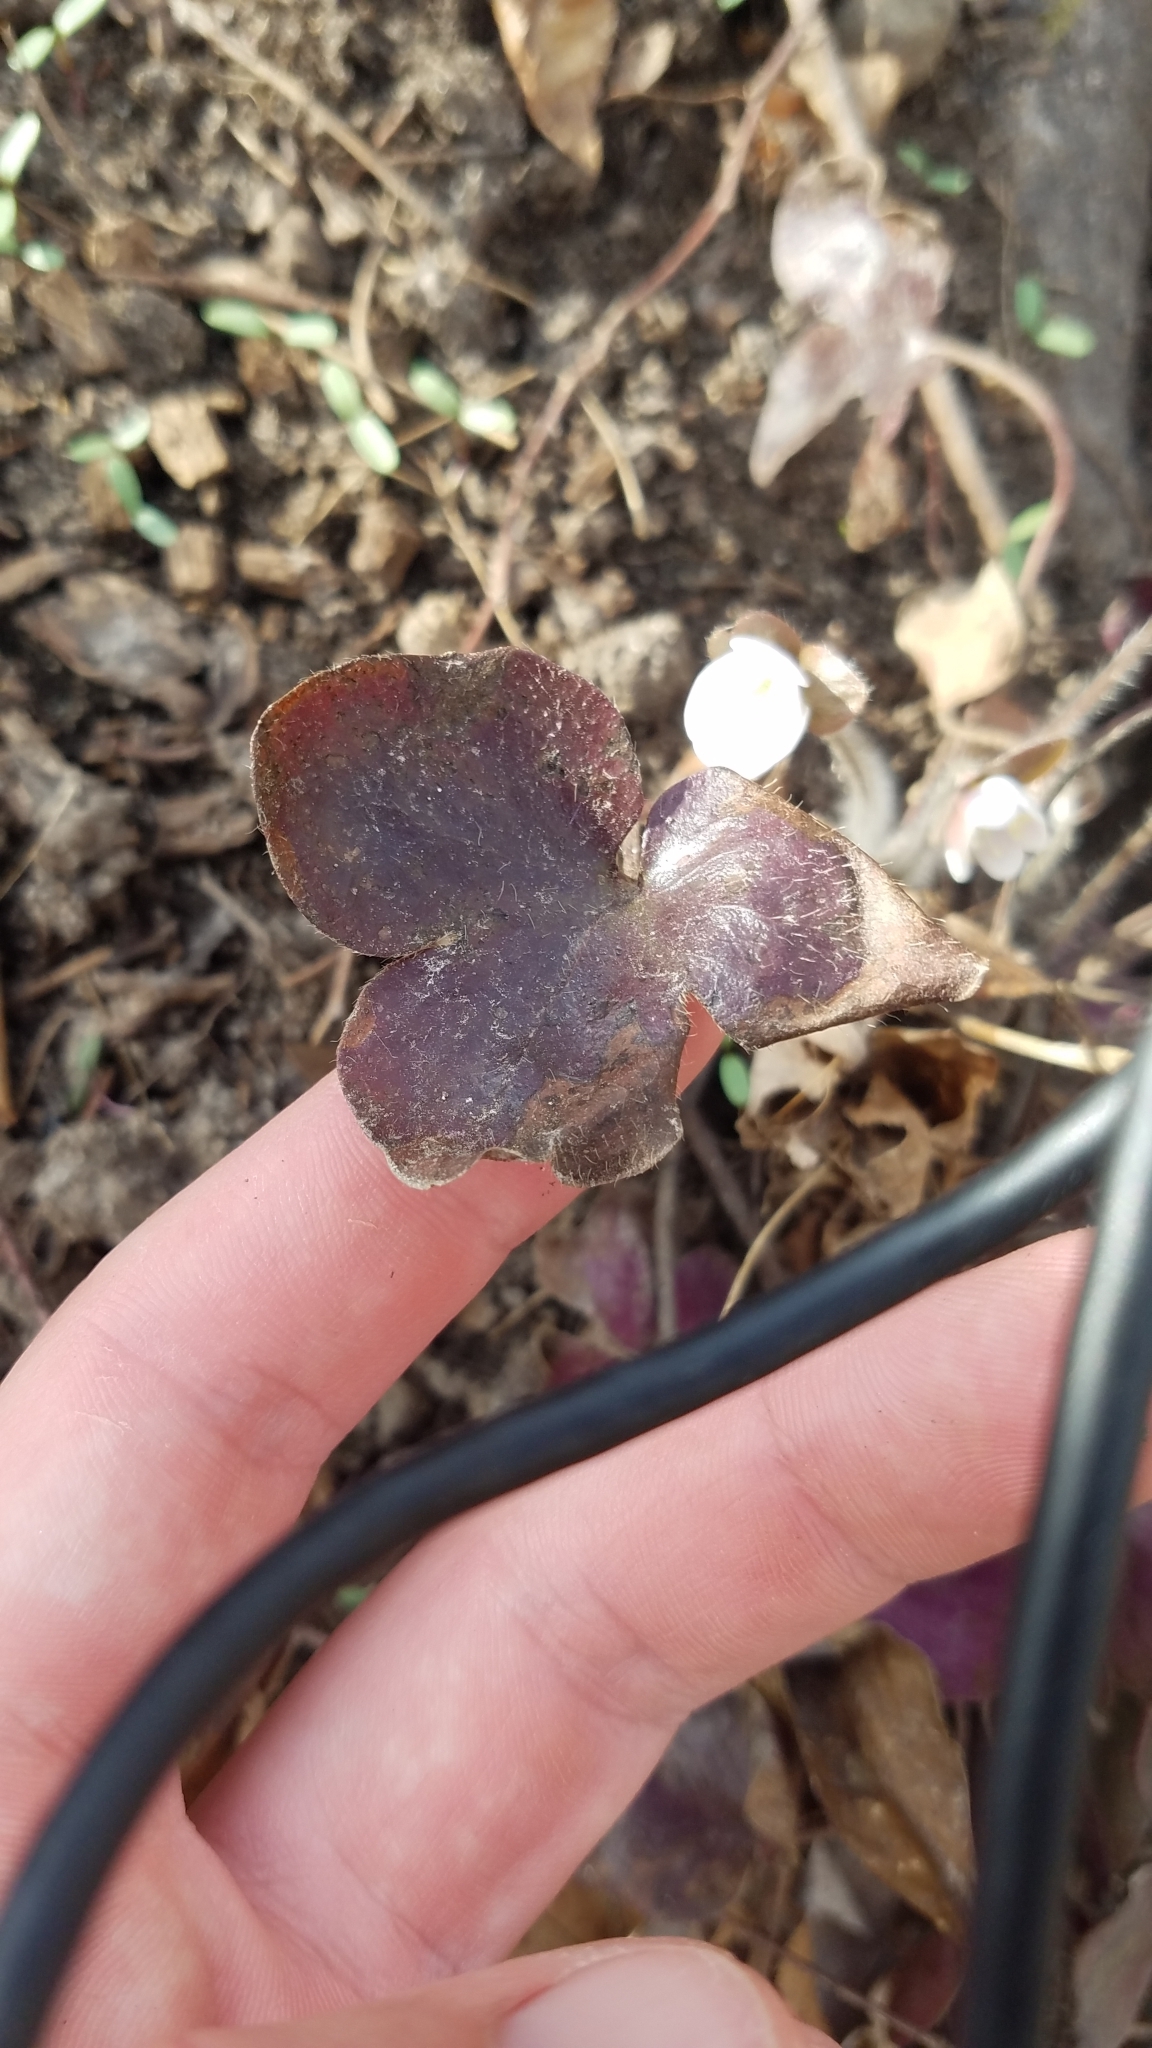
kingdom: Plantae
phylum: Tracheophyta
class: Magnoliopsida
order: Ranunculales
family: Ranunculaceae
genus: Hepatica
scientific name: Hepatica americana
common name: American hepatica
